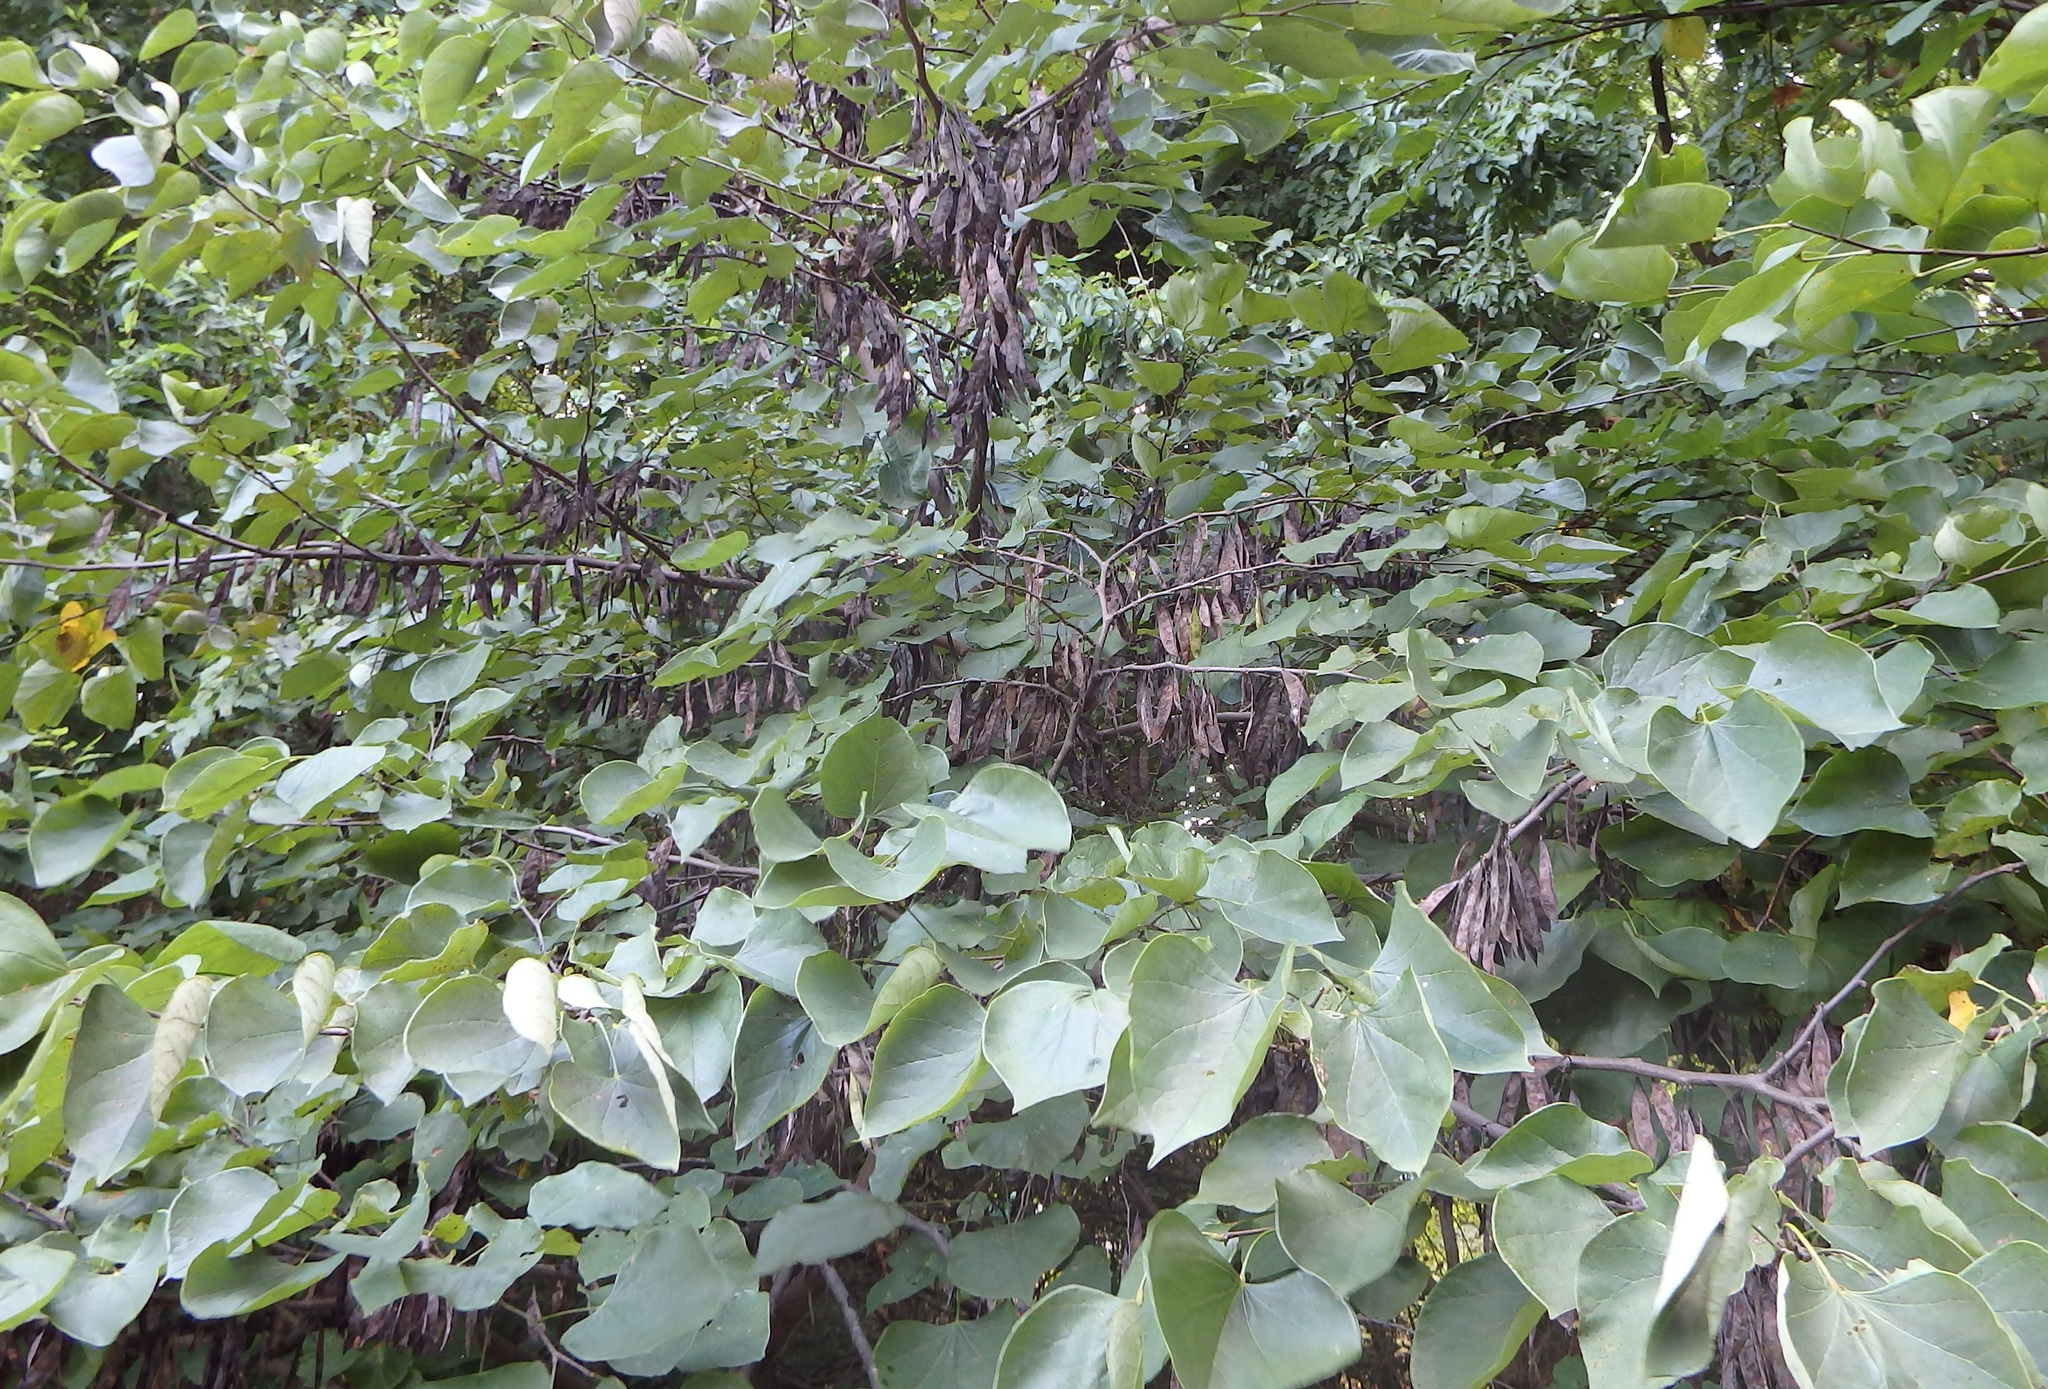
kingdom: Plantae
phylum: Tracheophyta
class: Magnoliopsida
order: Fabales
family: Fabaceae
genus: Cercis
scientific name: Cercis canadensis
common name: Eastern redbud
